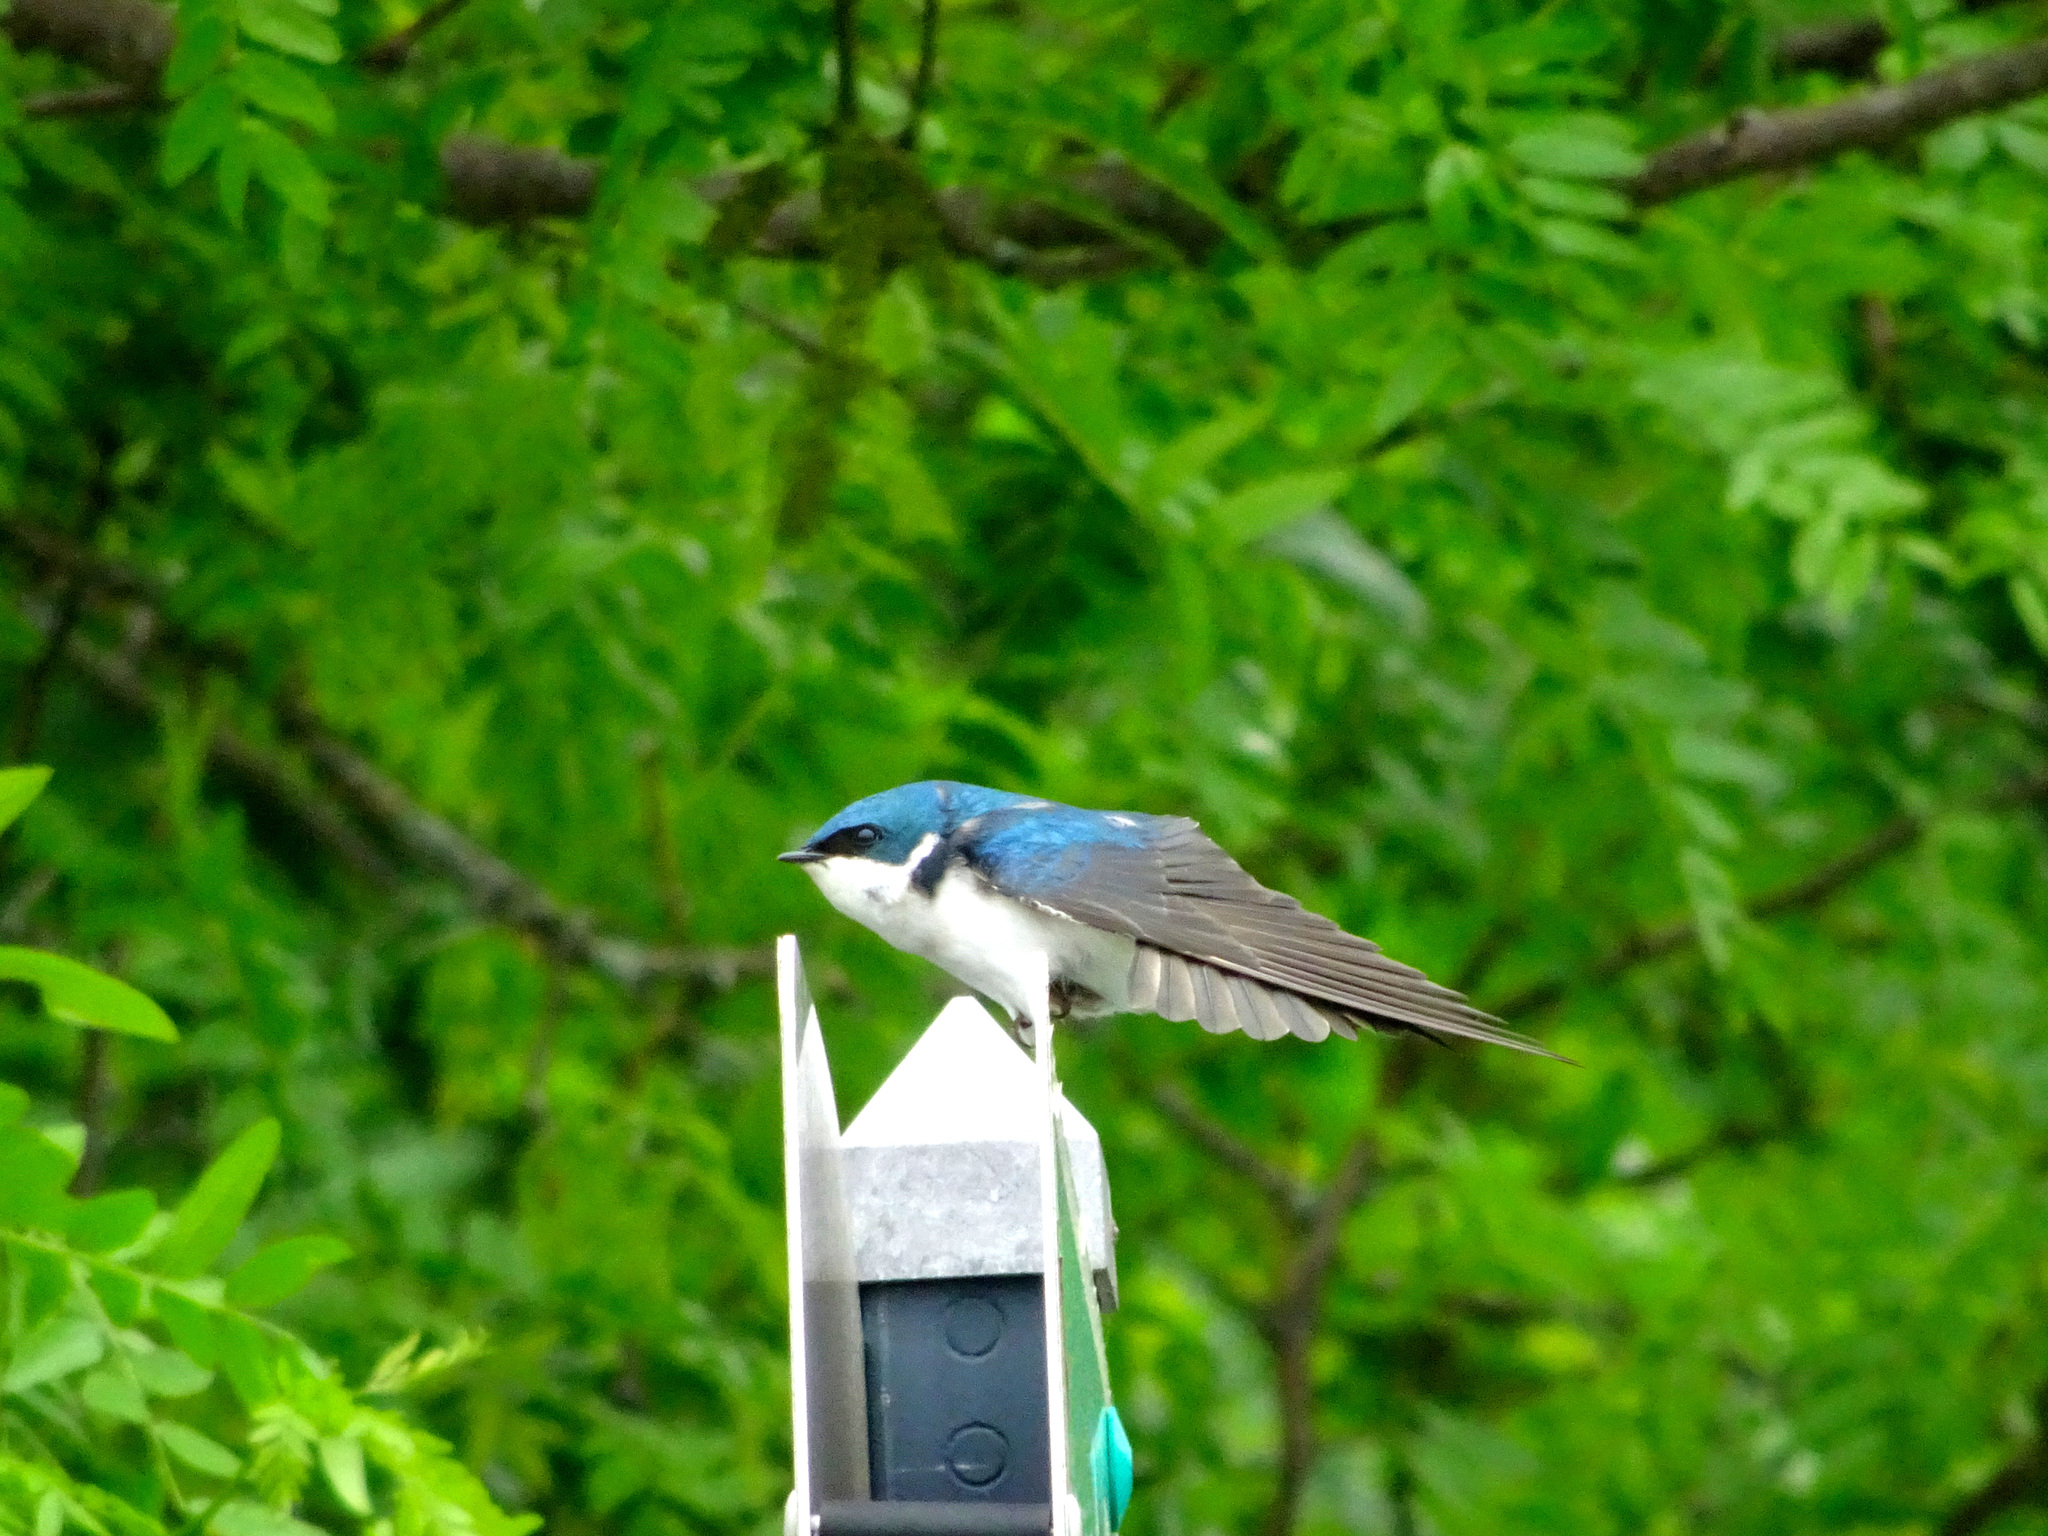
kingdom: Animalia
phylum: Chordata
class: Aves
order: Passeriformes
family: Hirundinidae
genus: Tachycineta
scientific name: Tachycineta bicolor
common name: Tree swallow
